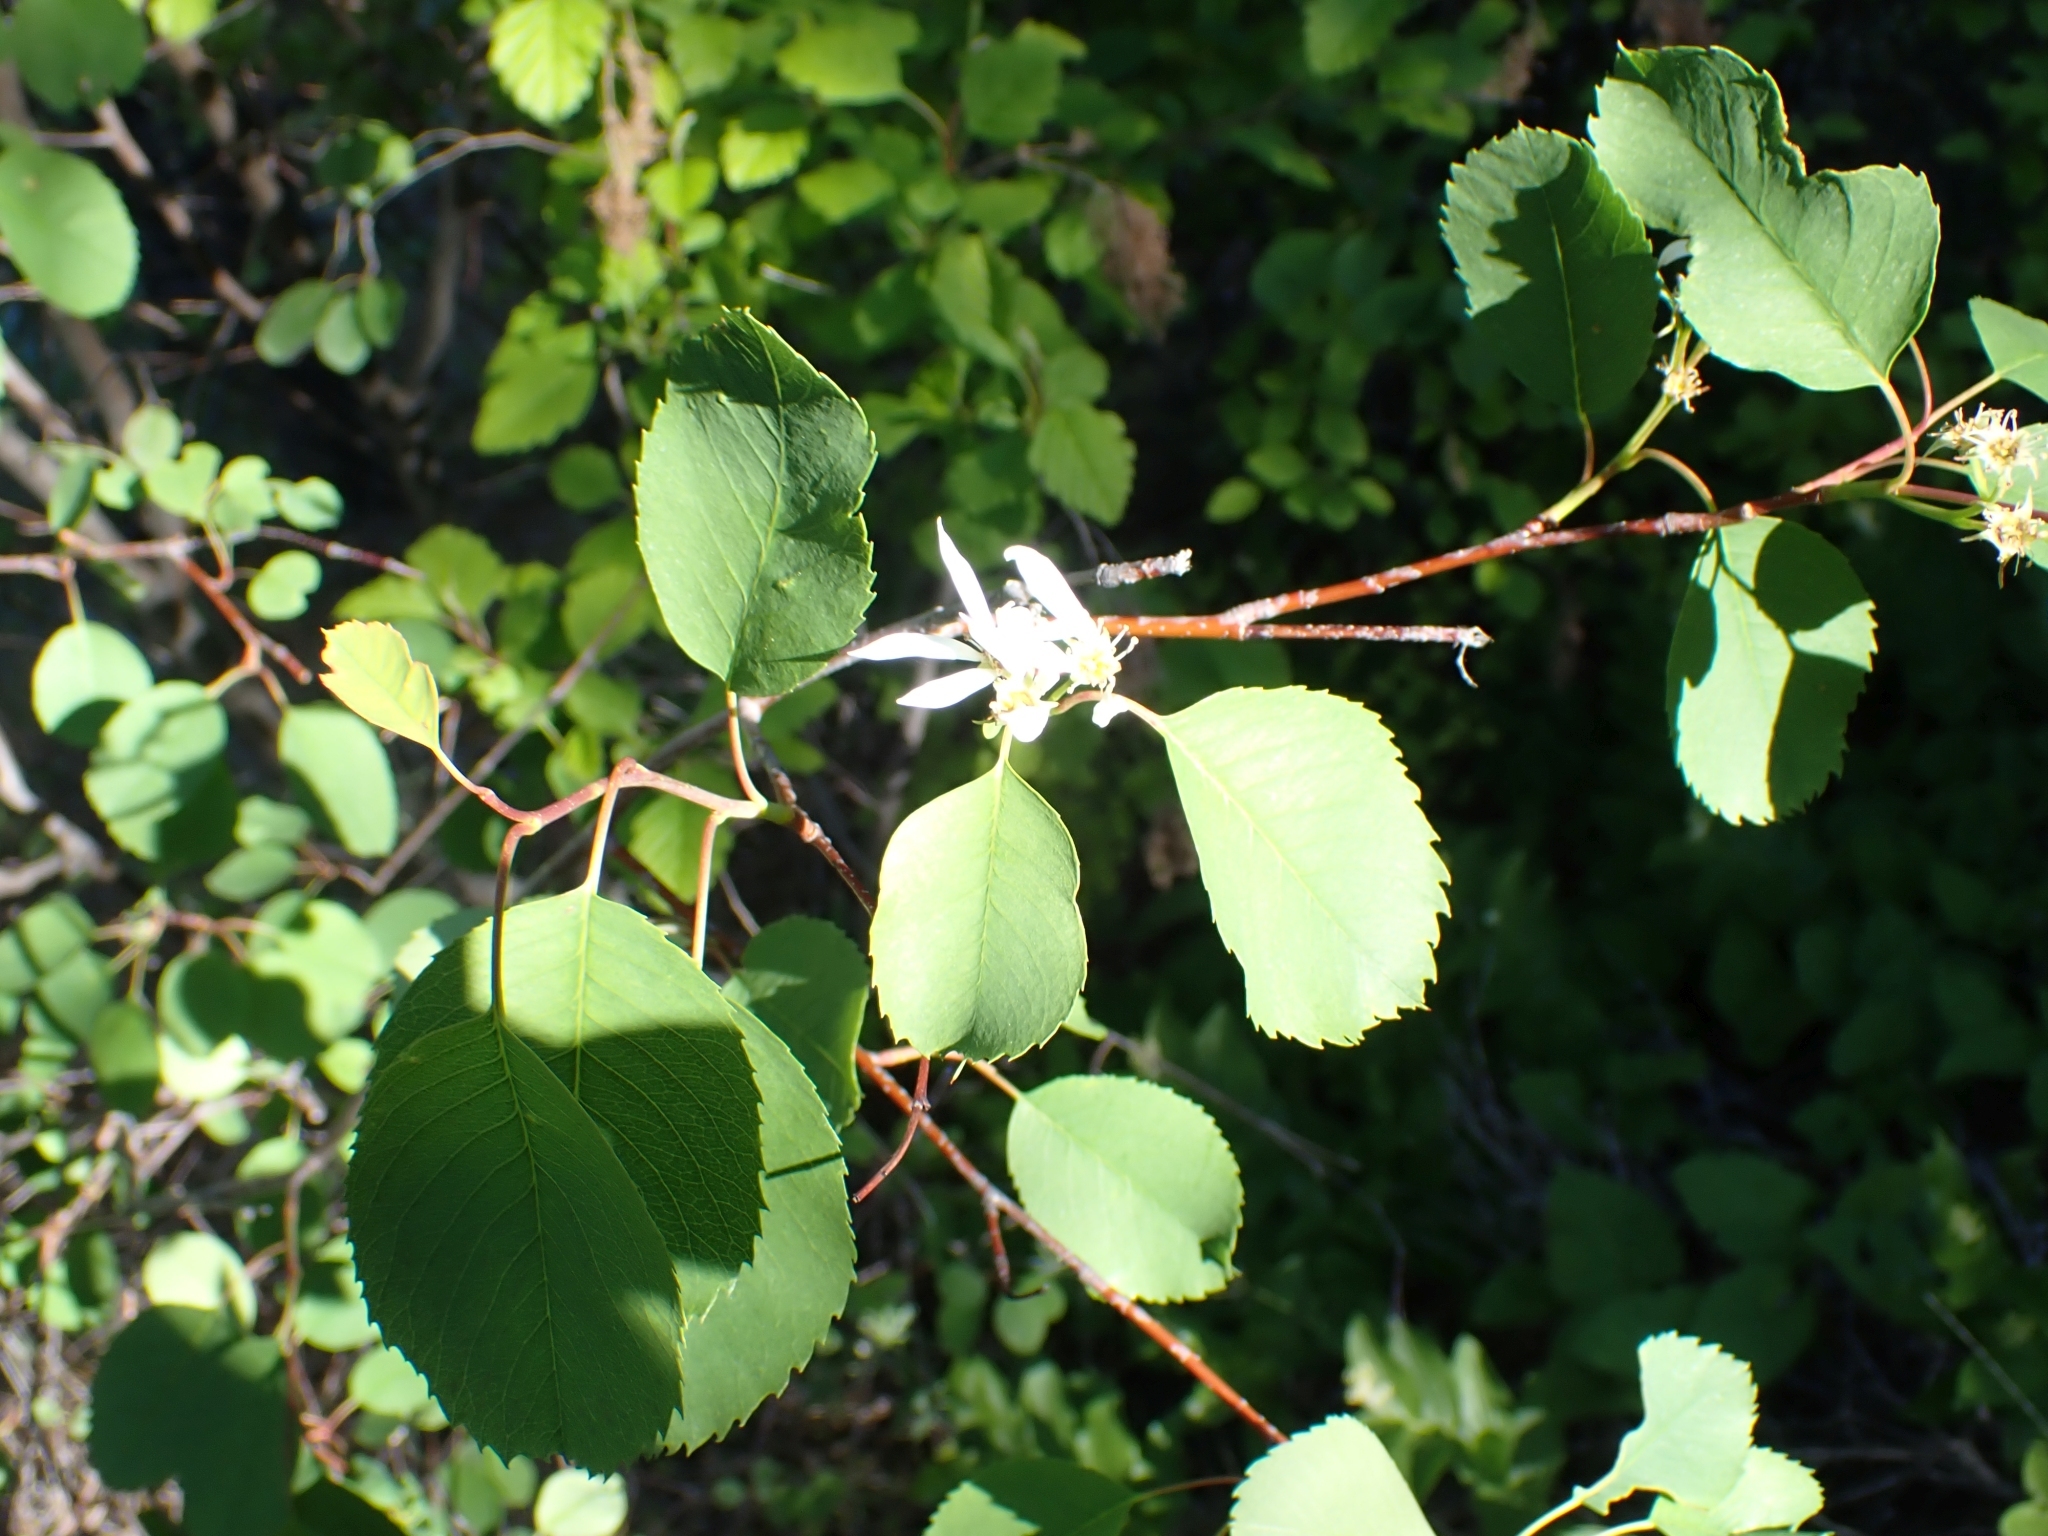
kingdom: Plantae
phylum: Tracheophyta
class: Magnoliopsida
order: Rosales
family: Rosaceae
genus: Amelanchier
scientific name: Amelanchier alnifolia
